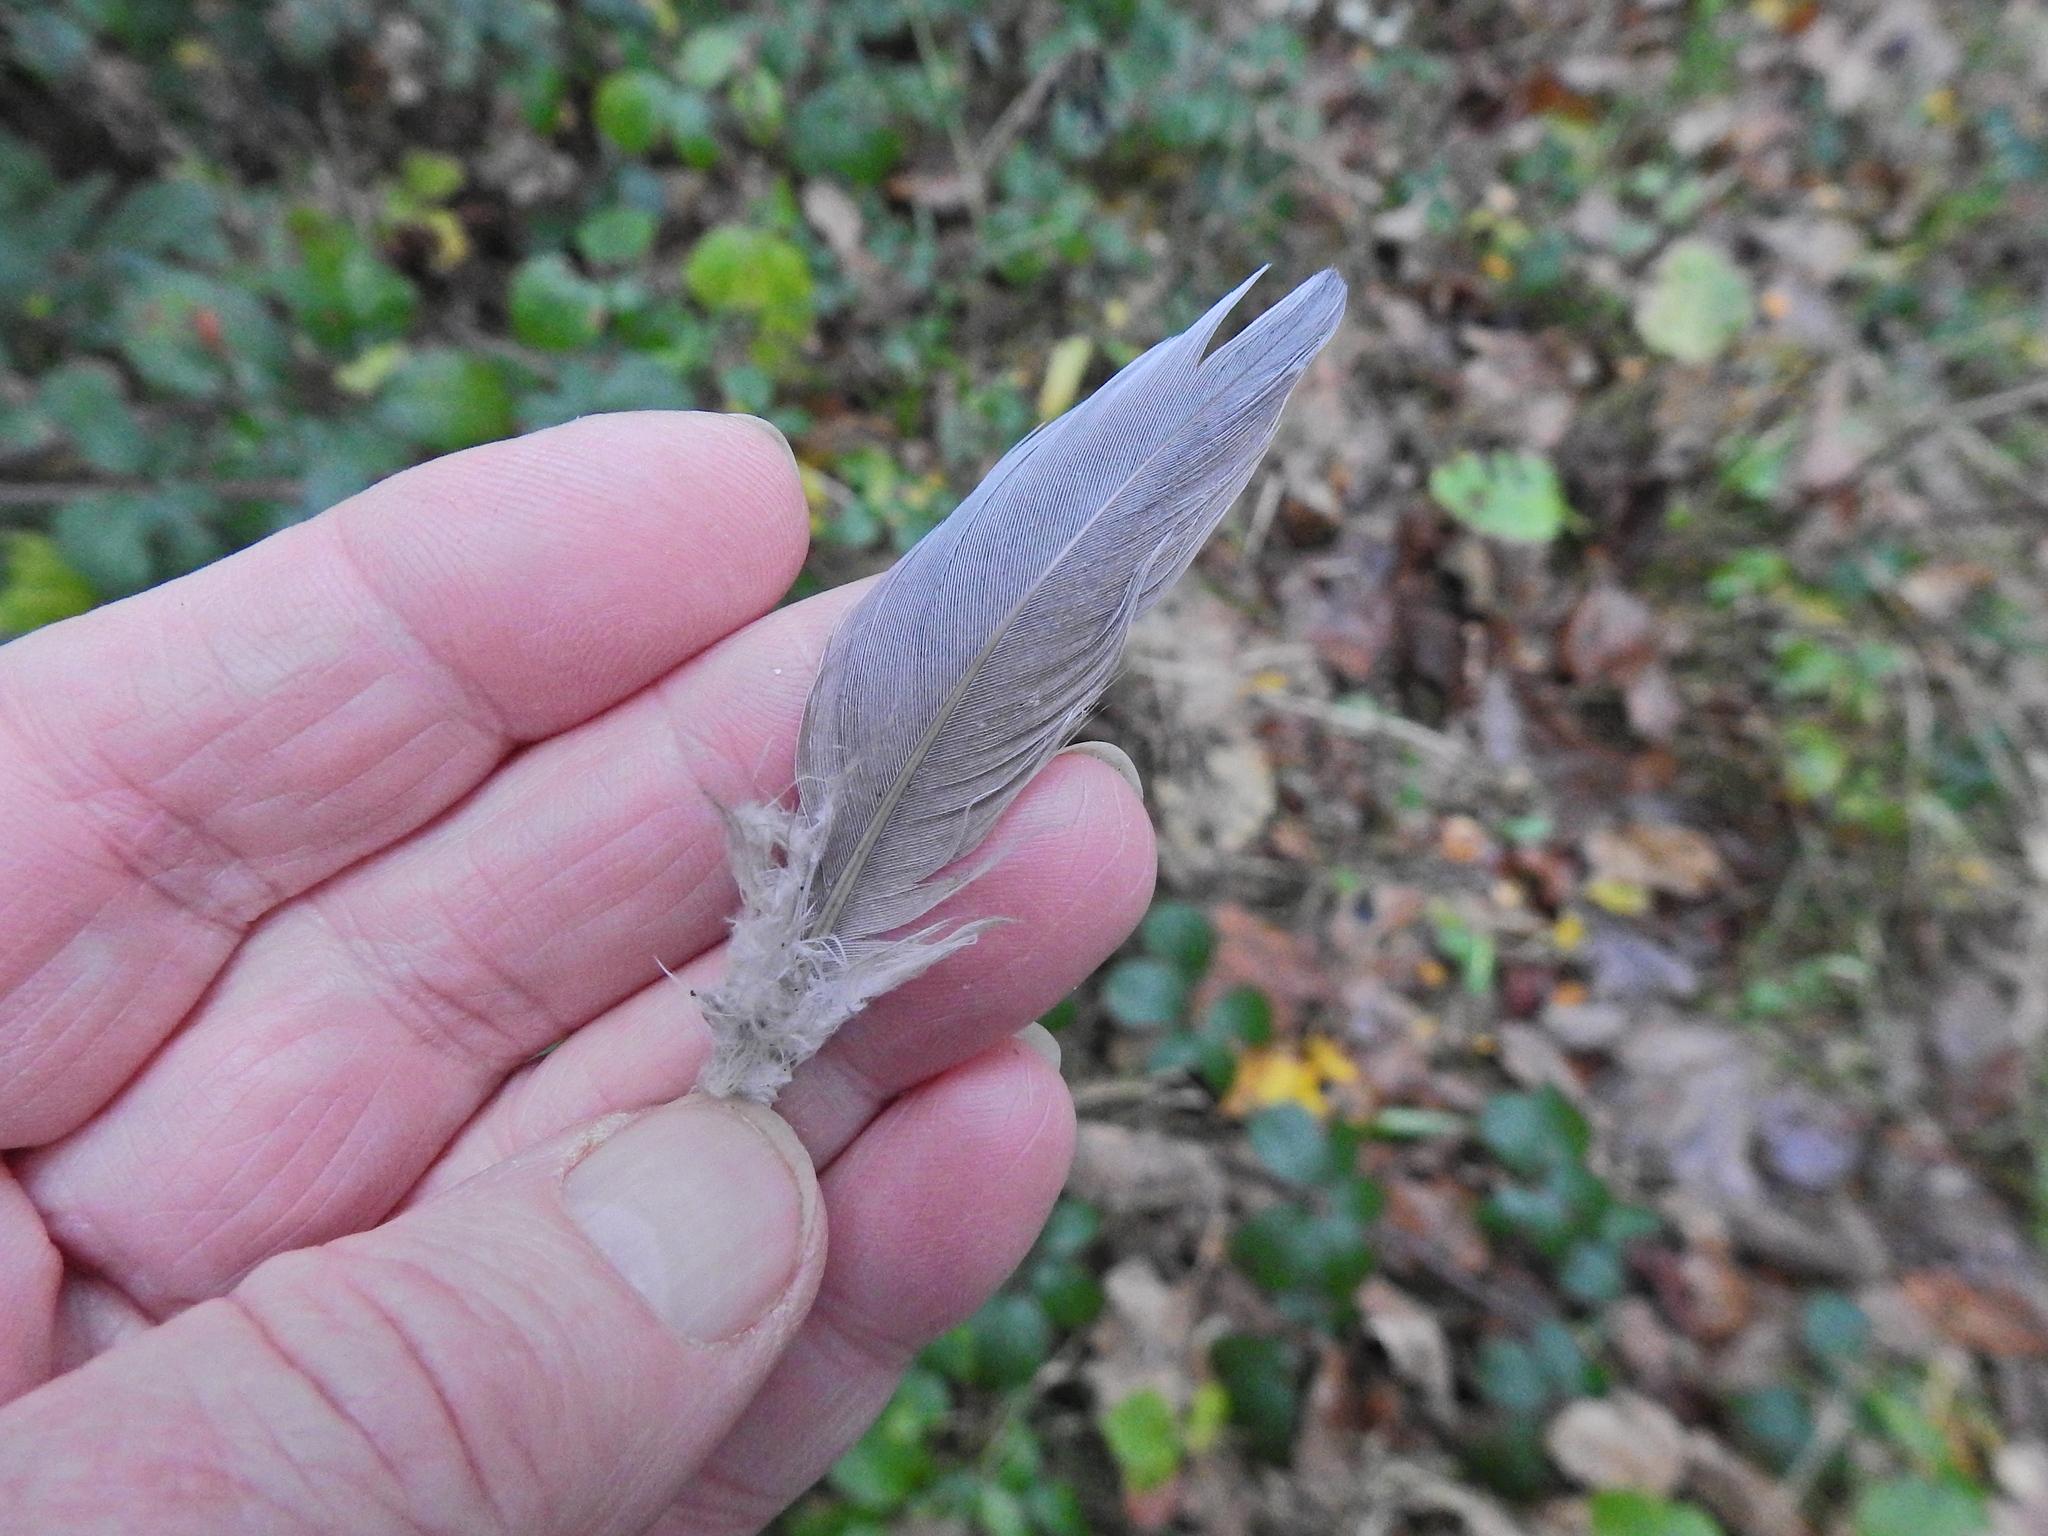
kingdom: Animalia
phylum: Chordata
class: Aves
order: Columbiformes
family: Columbidae
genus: Columba
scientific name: Columba palumbus
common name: Common wood pigeon
